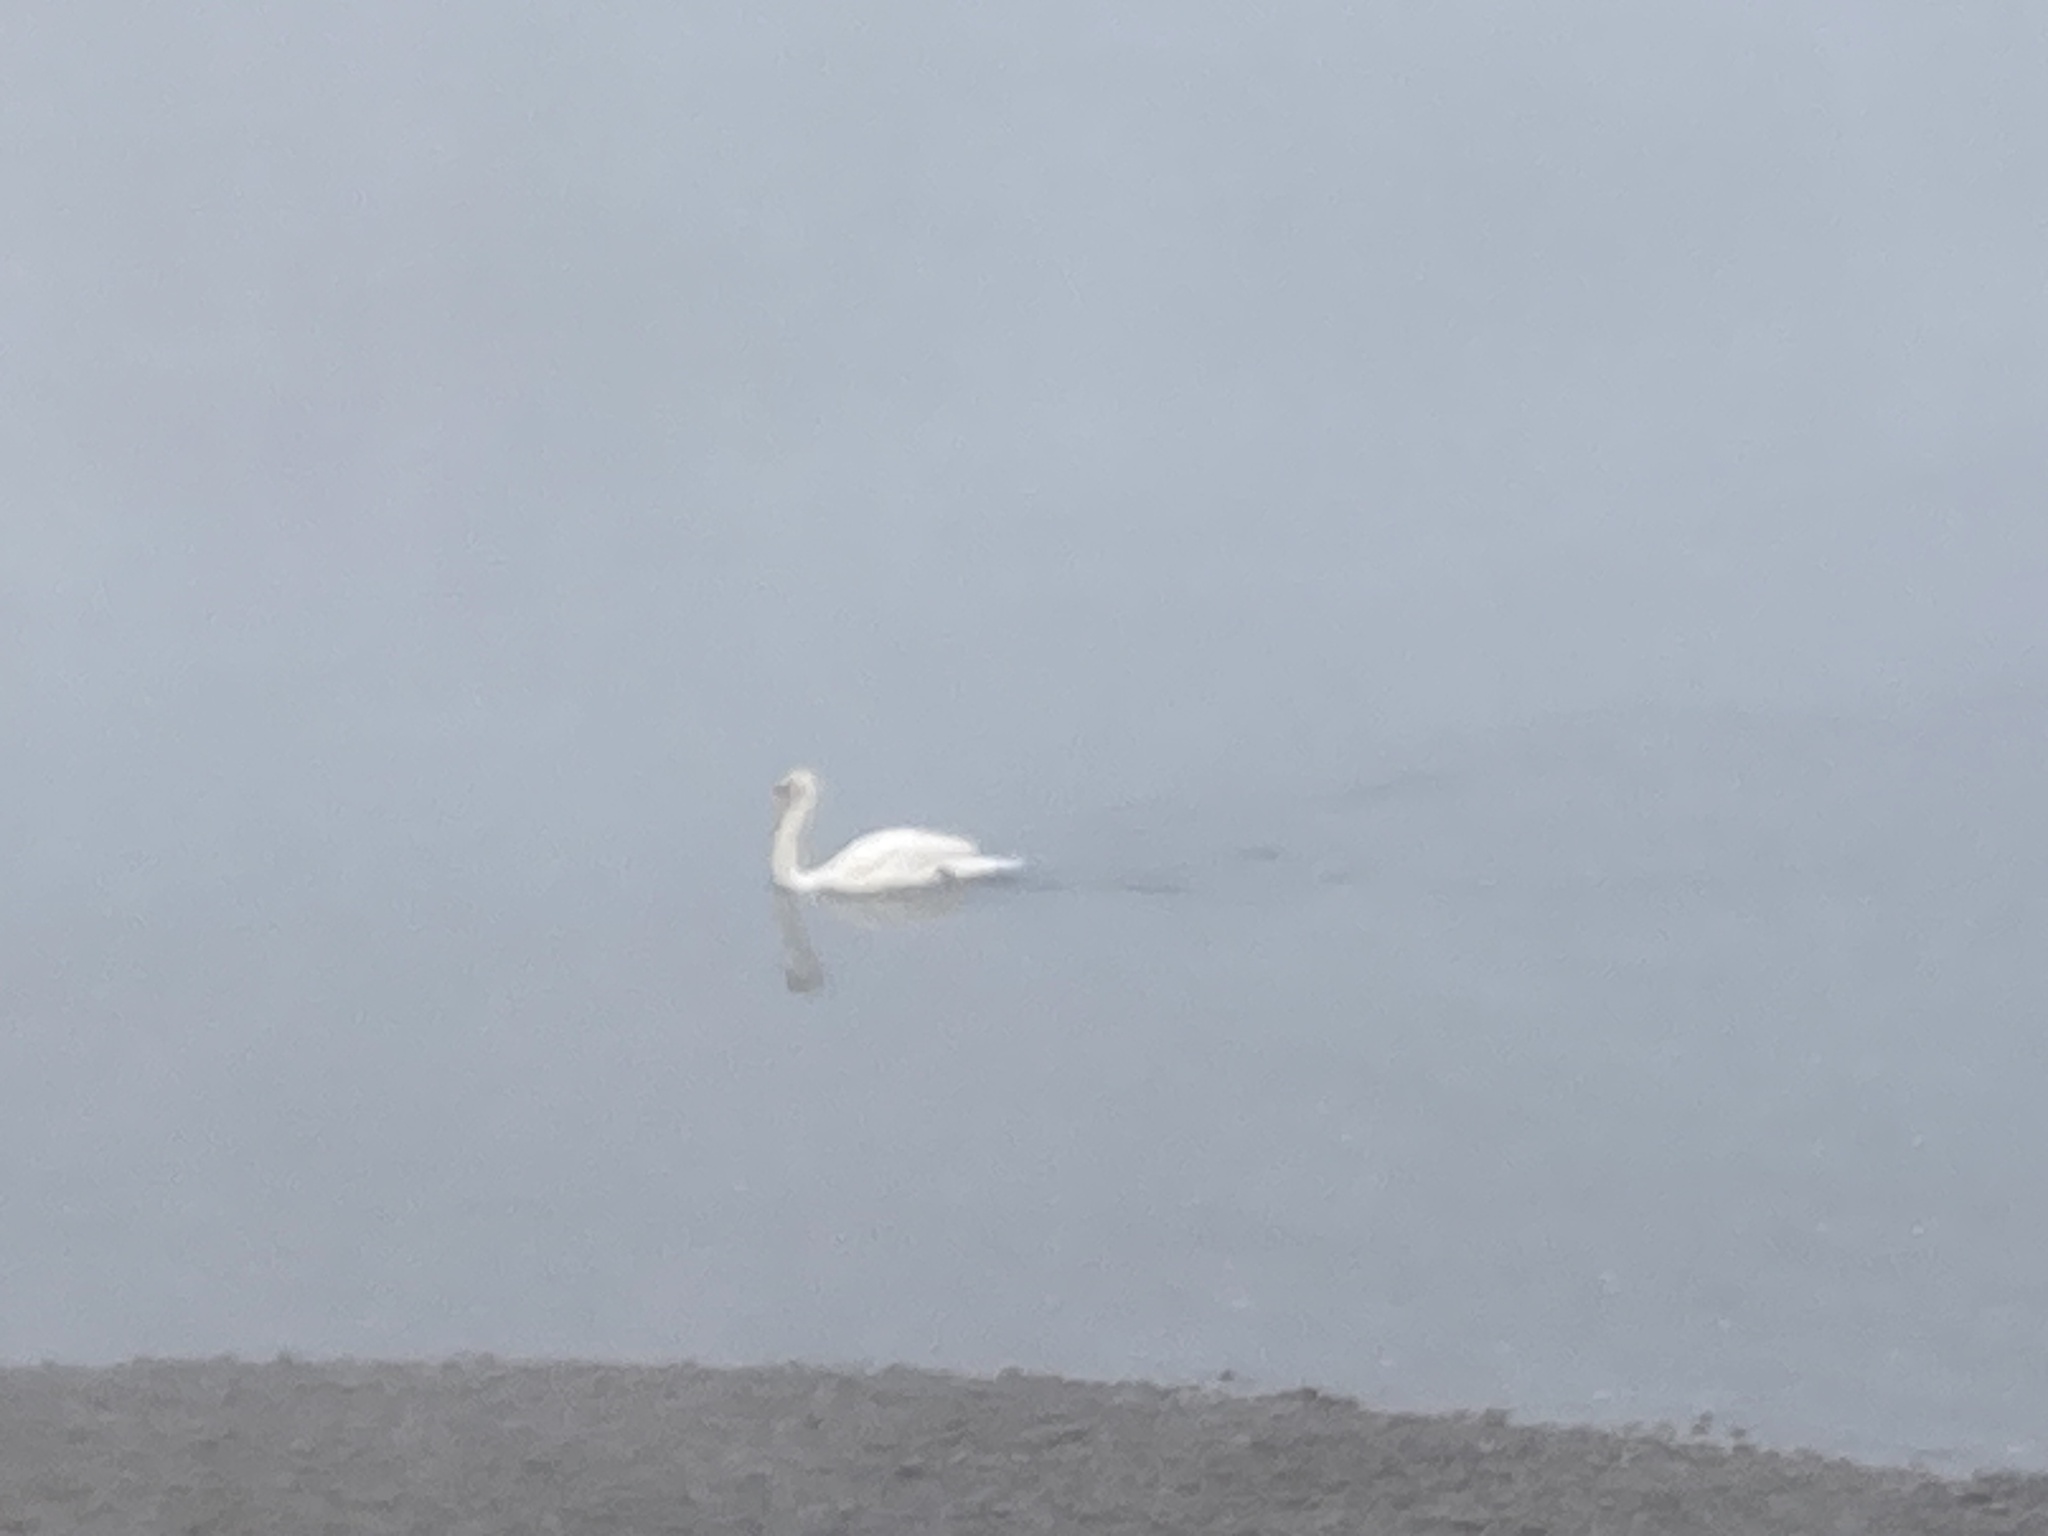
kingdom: Animalia
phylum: Chordata
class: Aves
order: Anseriformes
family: Anatidae
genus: Cygnus
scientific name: Cygnus olor
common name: Mute swan
